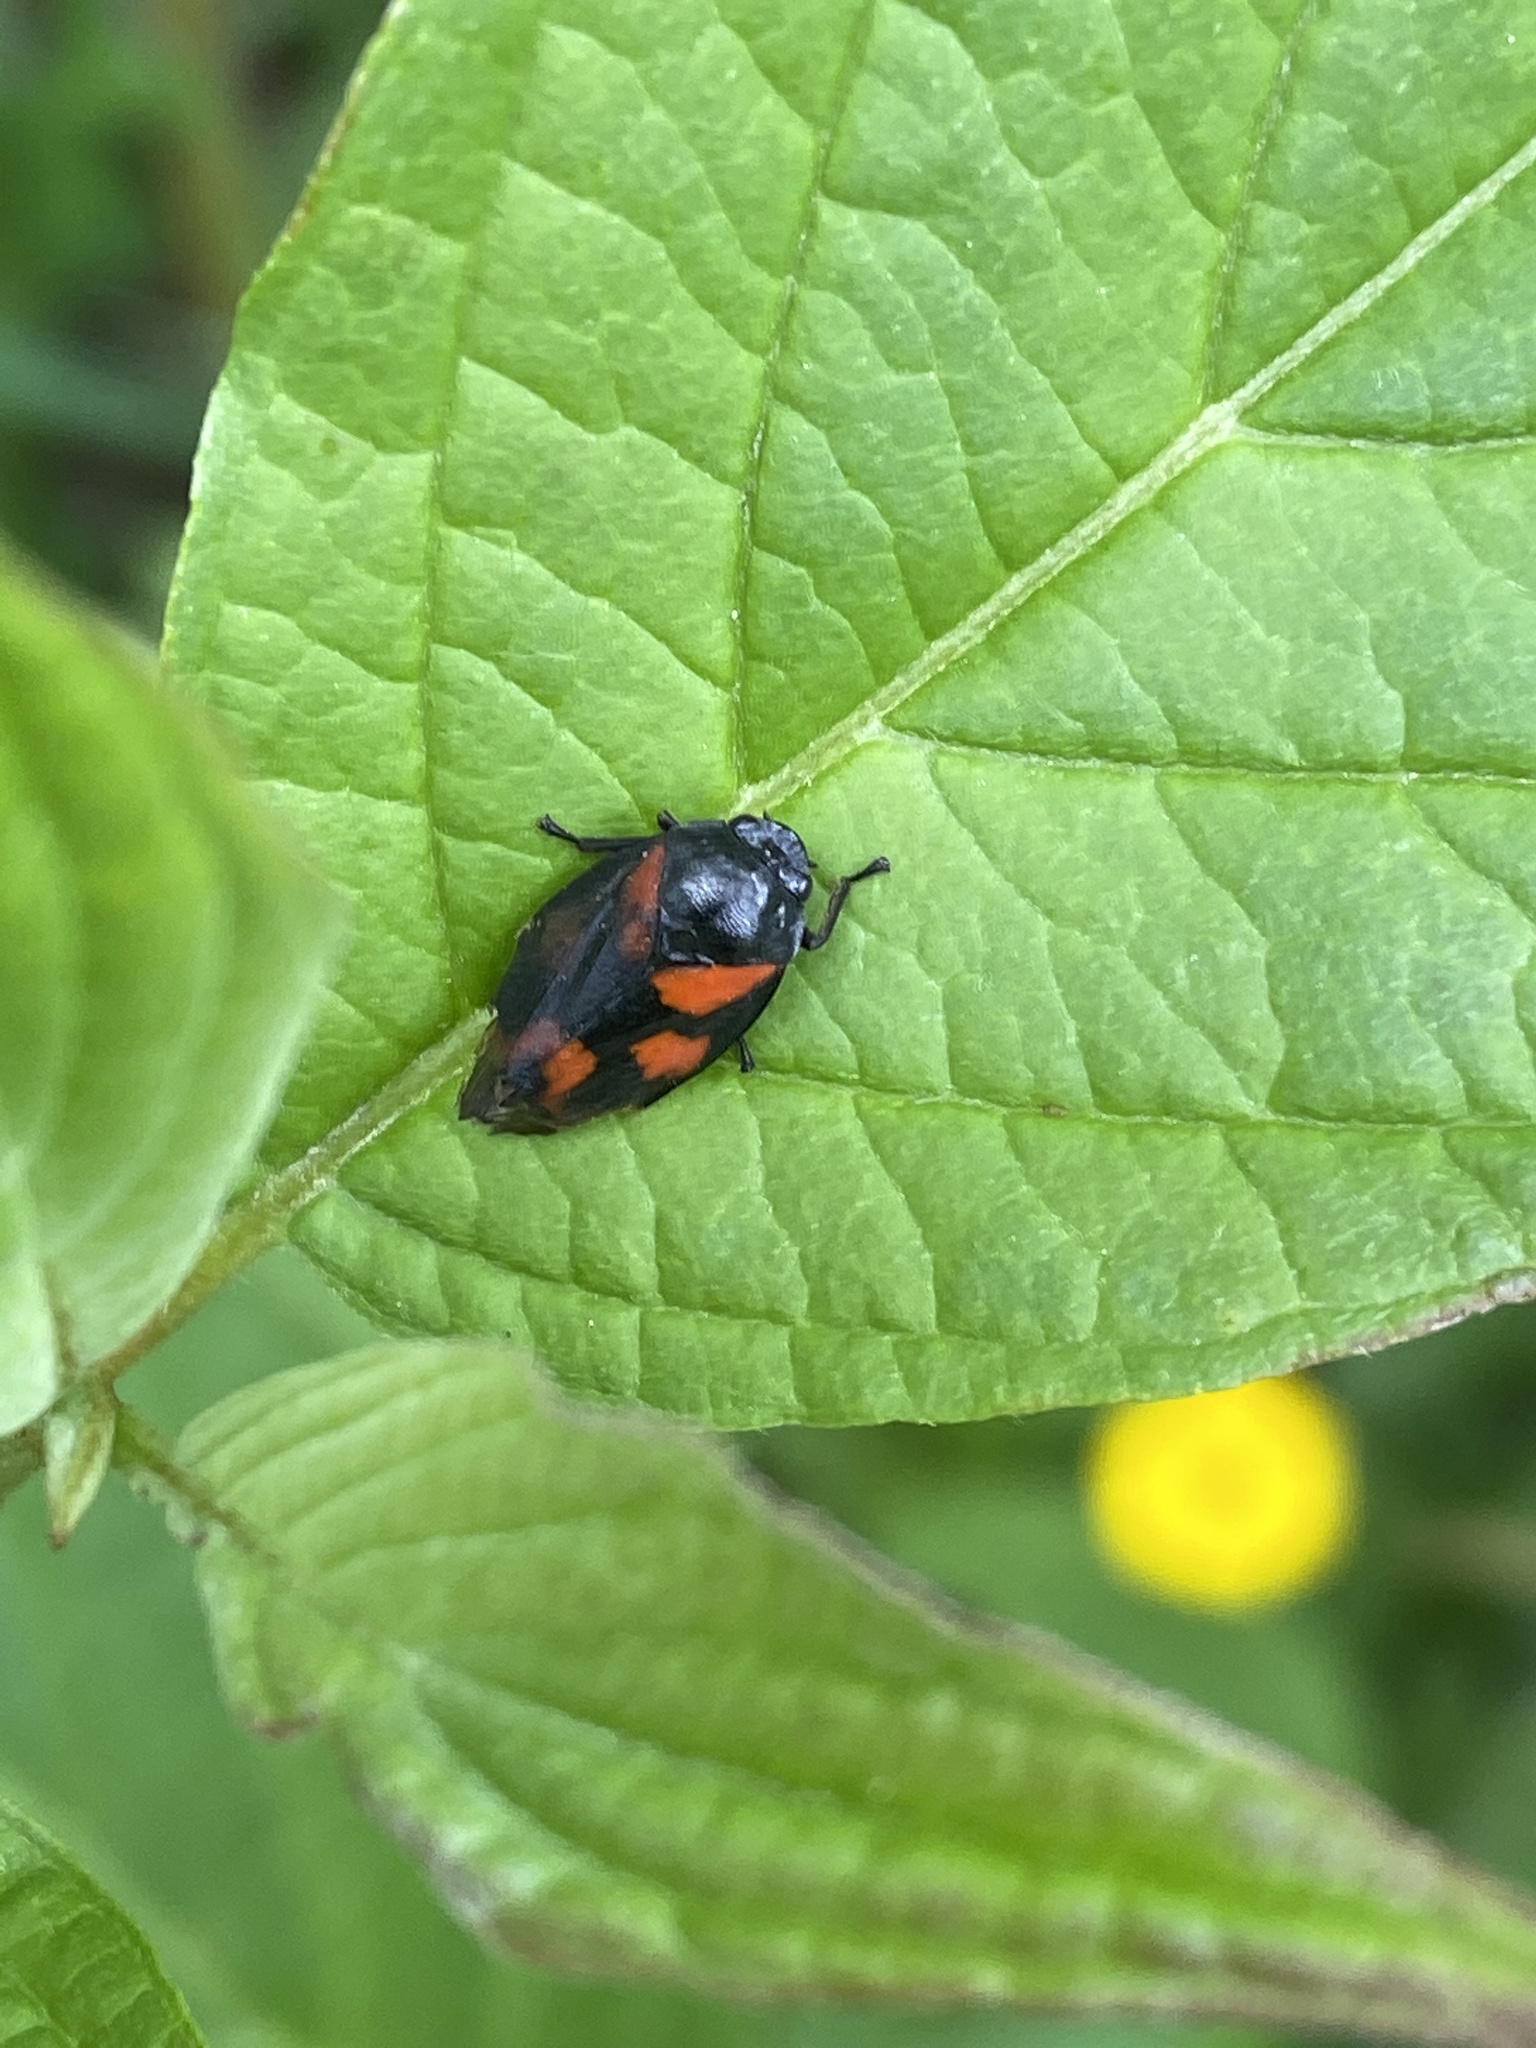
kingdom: Animalia
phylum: Arthropoda
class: Insecta
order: Hemiptera
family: Cercopidae
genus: Cercopis
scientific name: Cercopis vulnerata
